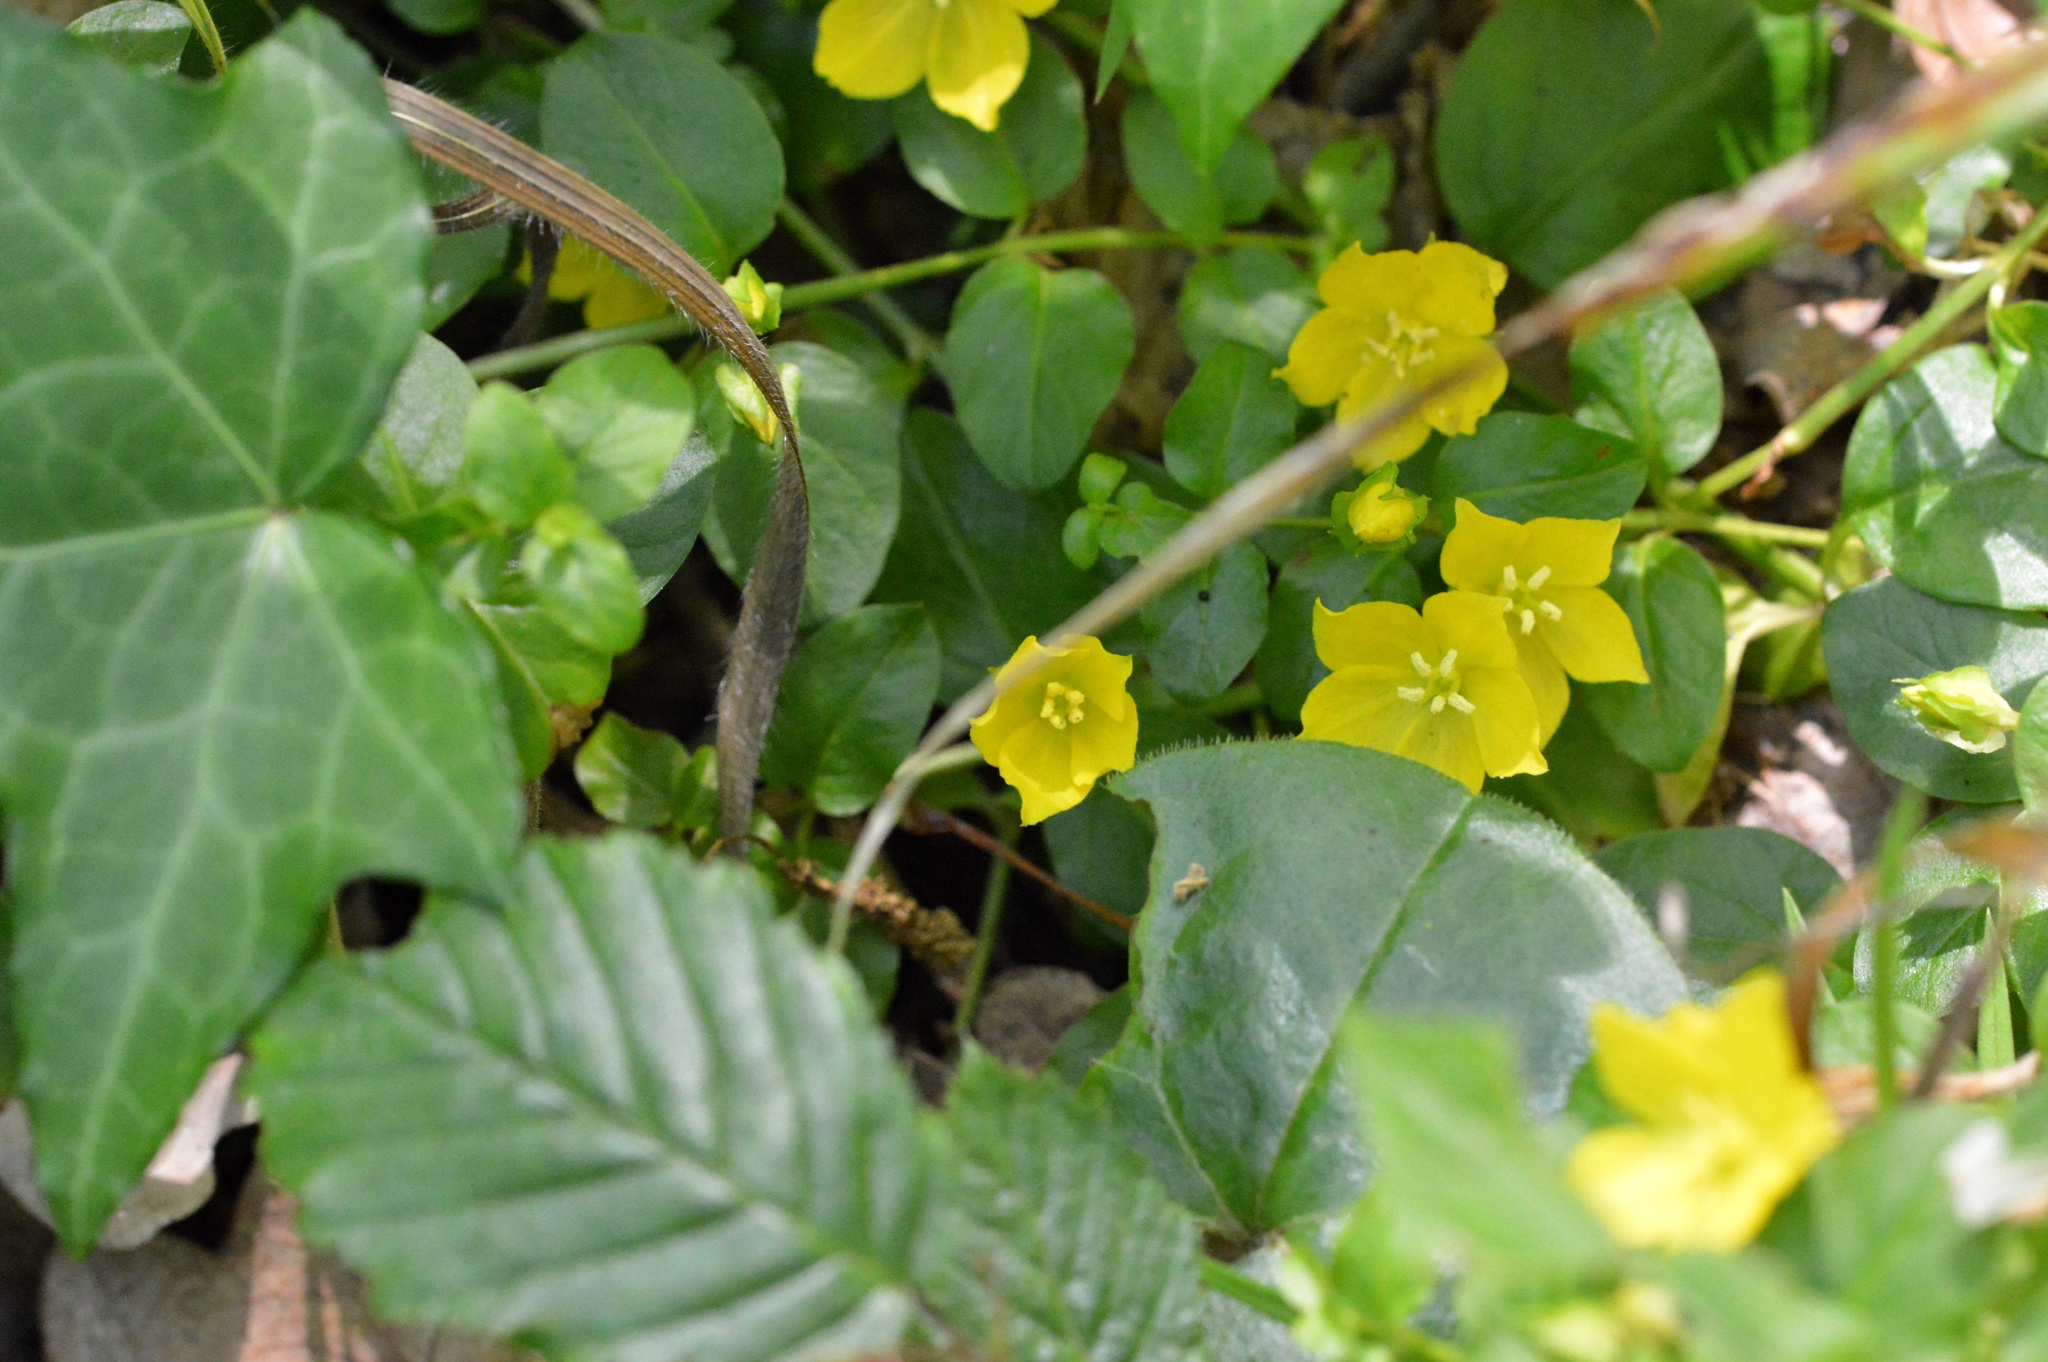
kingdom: Plantae
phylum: Tracheophyta
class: Magnoliopsida
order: Ericales
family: Primulaceae
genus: Lysimachia
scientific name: Lysimachia nummularia
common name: Moneywort
